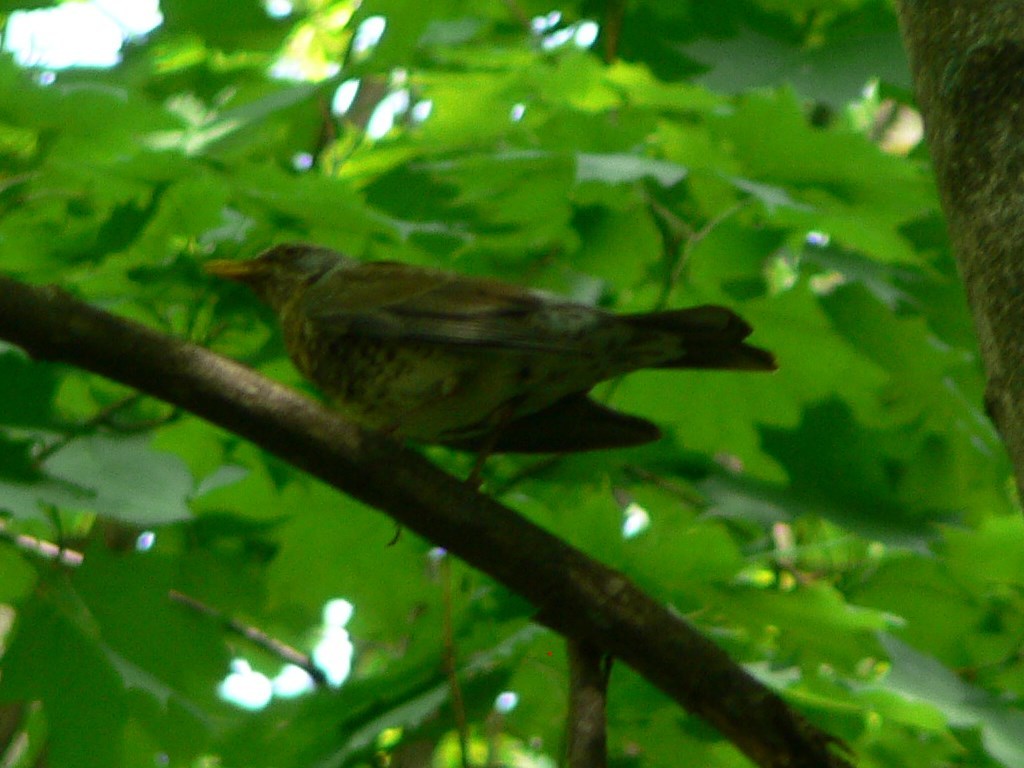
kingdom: Animalia
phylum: Chordata
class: Aves
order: Passeriformes
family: Turdidae
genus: Turdus
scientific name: Turdus pilaris
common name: Fieldfare
